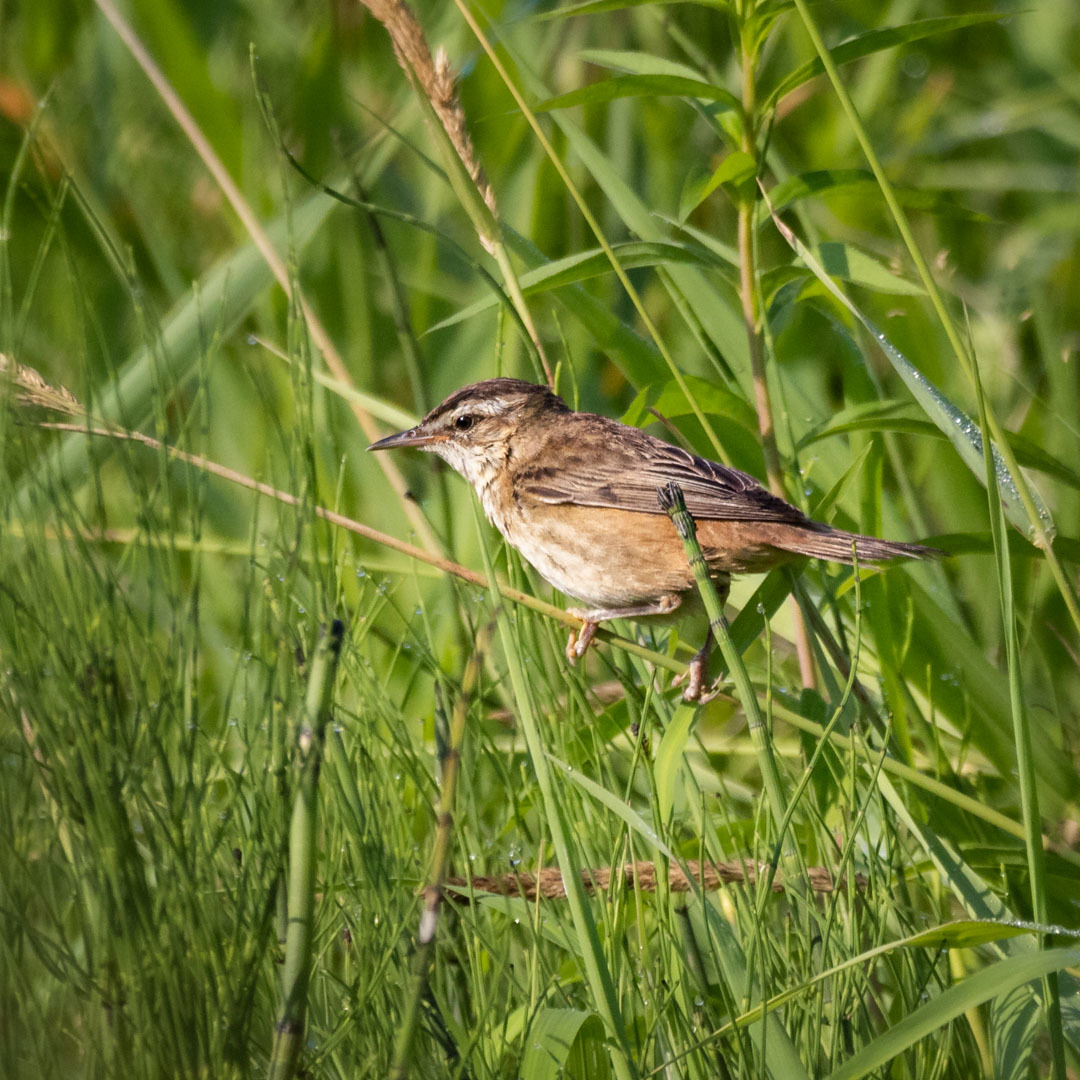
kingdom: Animalia
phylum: Chordata
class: Aves
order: Passeriformes
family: Acrocephalidae
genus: Acrocephalus
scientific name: Acrocephalus schoenobaenus
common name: Sedge warbler
